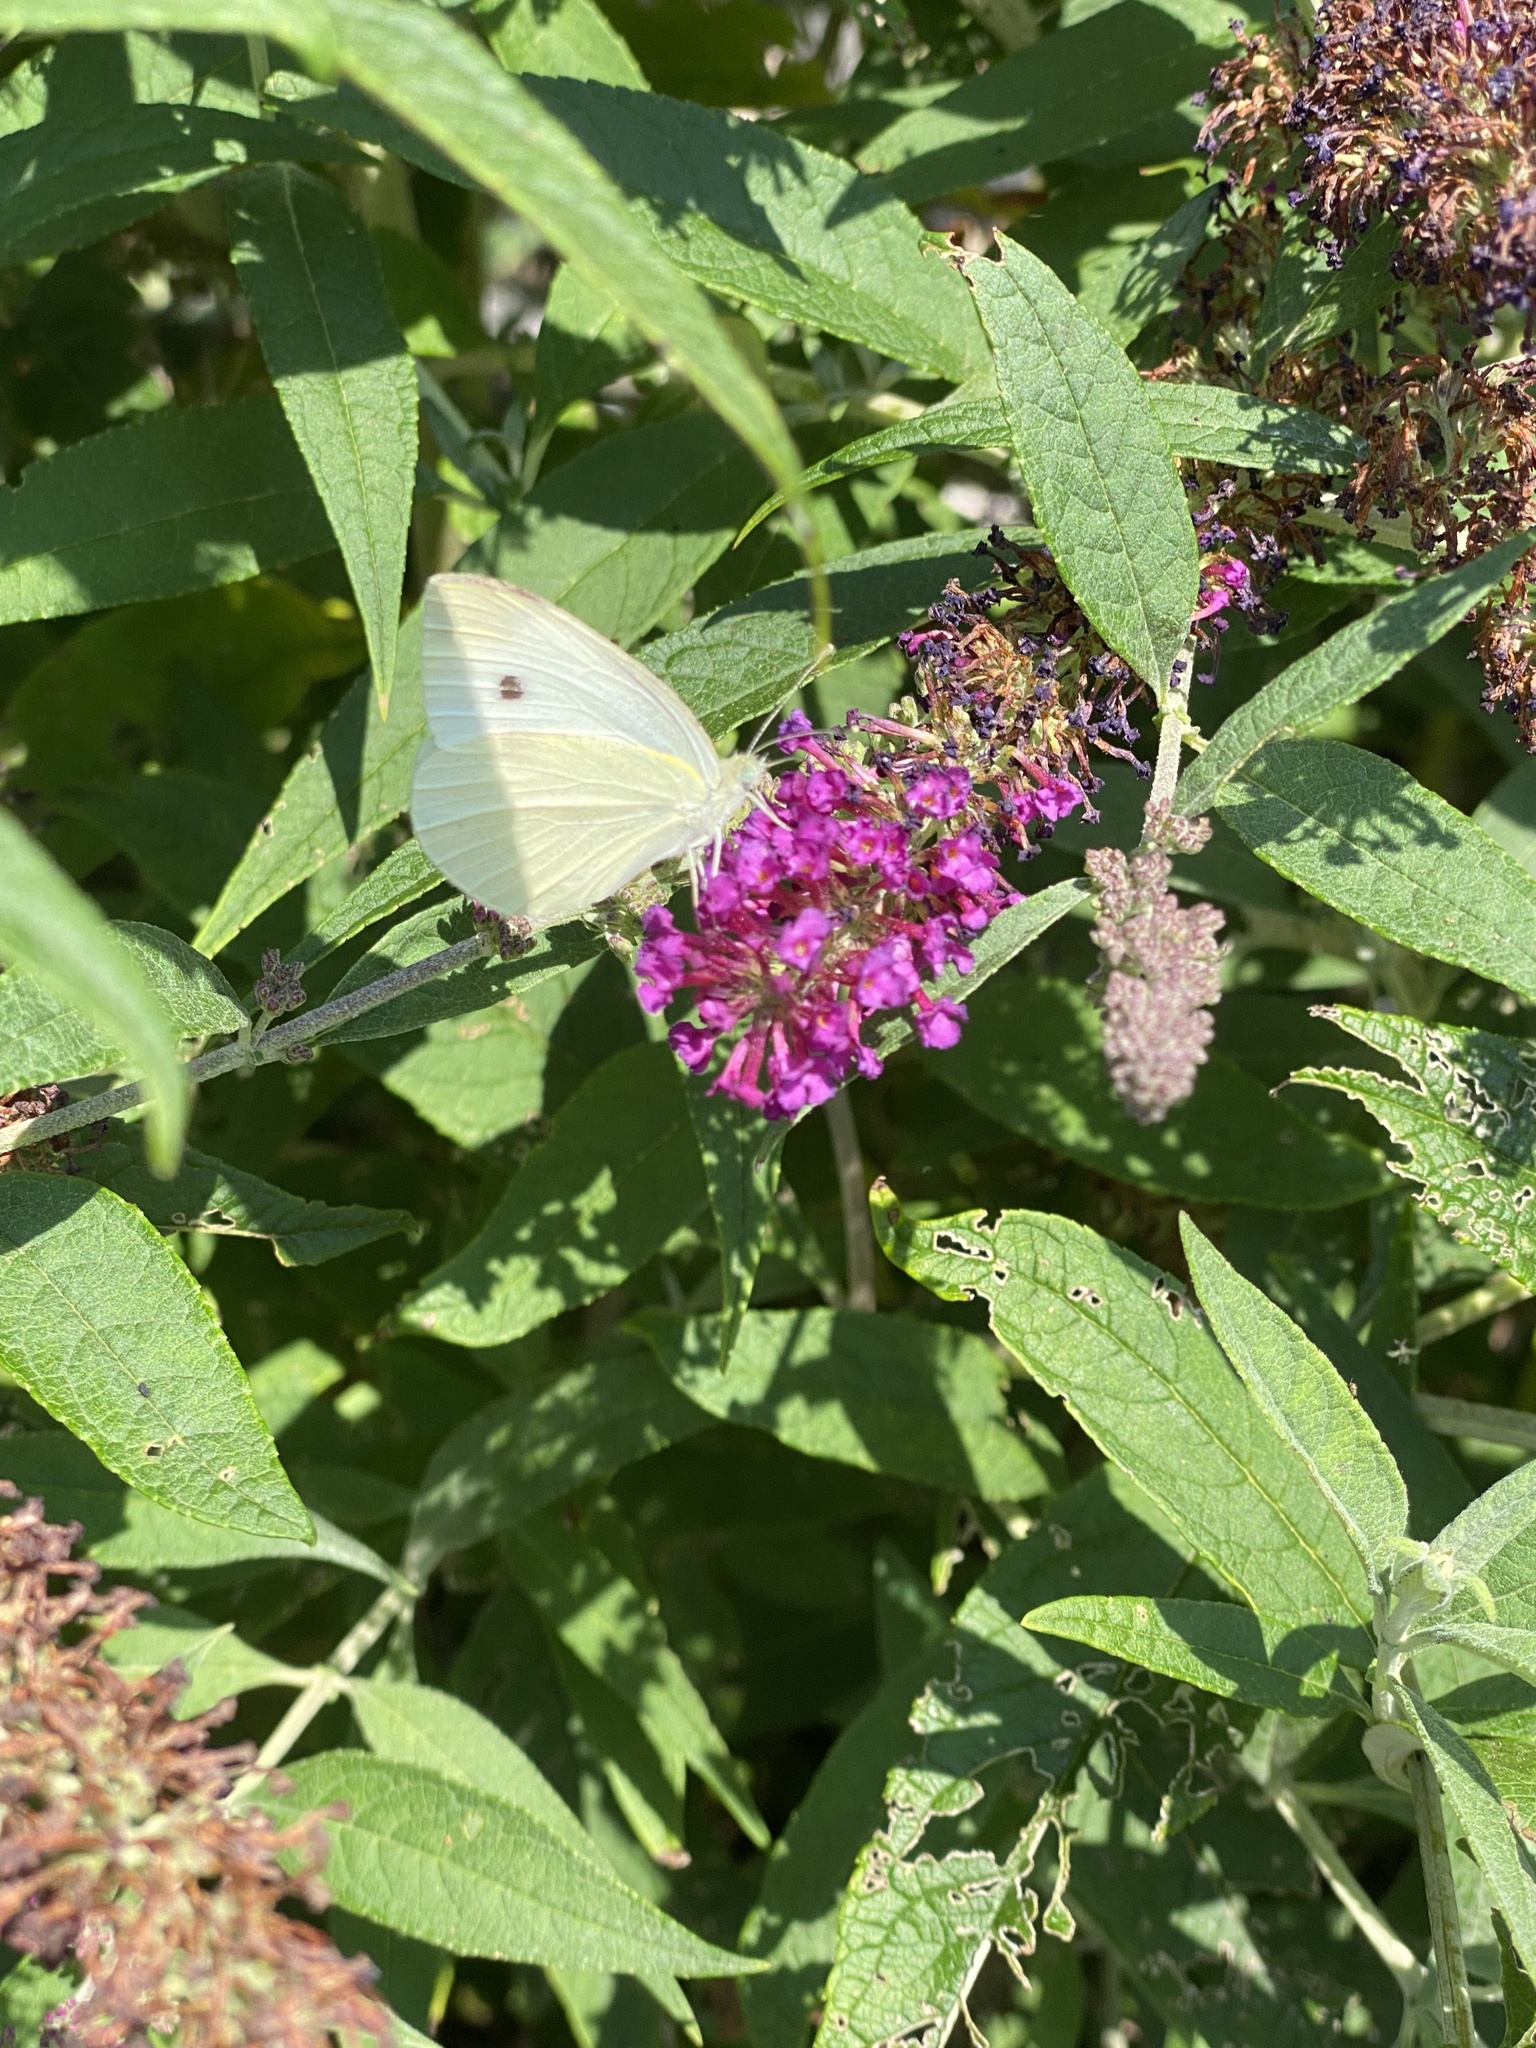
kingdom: Animalia
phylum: Arthropoda
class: Insecta
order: Lepidoptera
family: Pieridae
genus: Pieris
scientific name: Pieris rapae
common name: Small white
